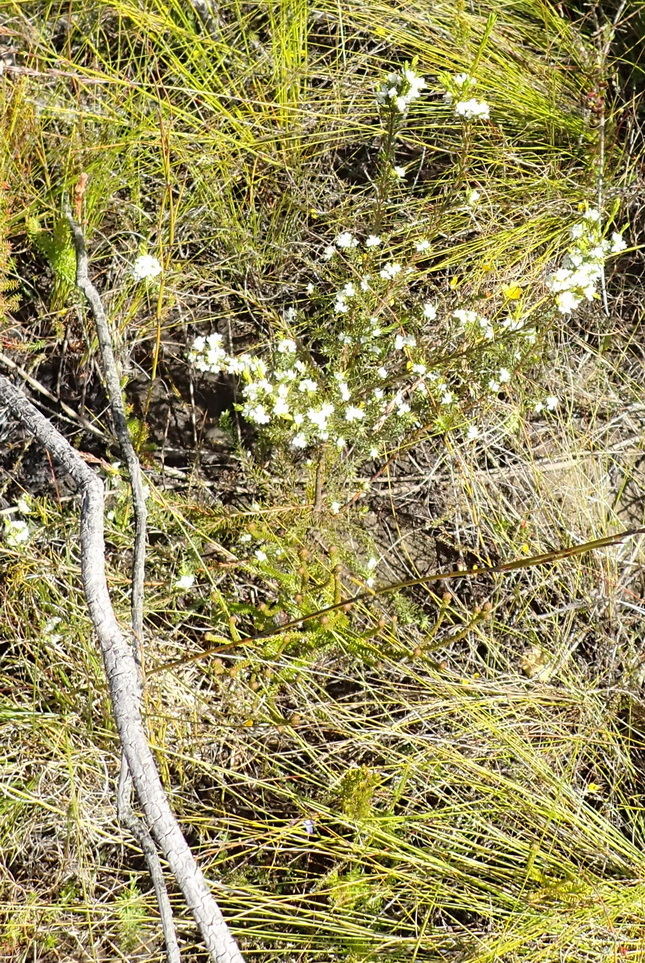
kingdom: Plantae
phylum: Tracheophyta
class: Magnoliopsida
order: Malvales
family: Thymelaeaceae
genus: Lachnaea
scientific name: Lachnaea diosmoides
